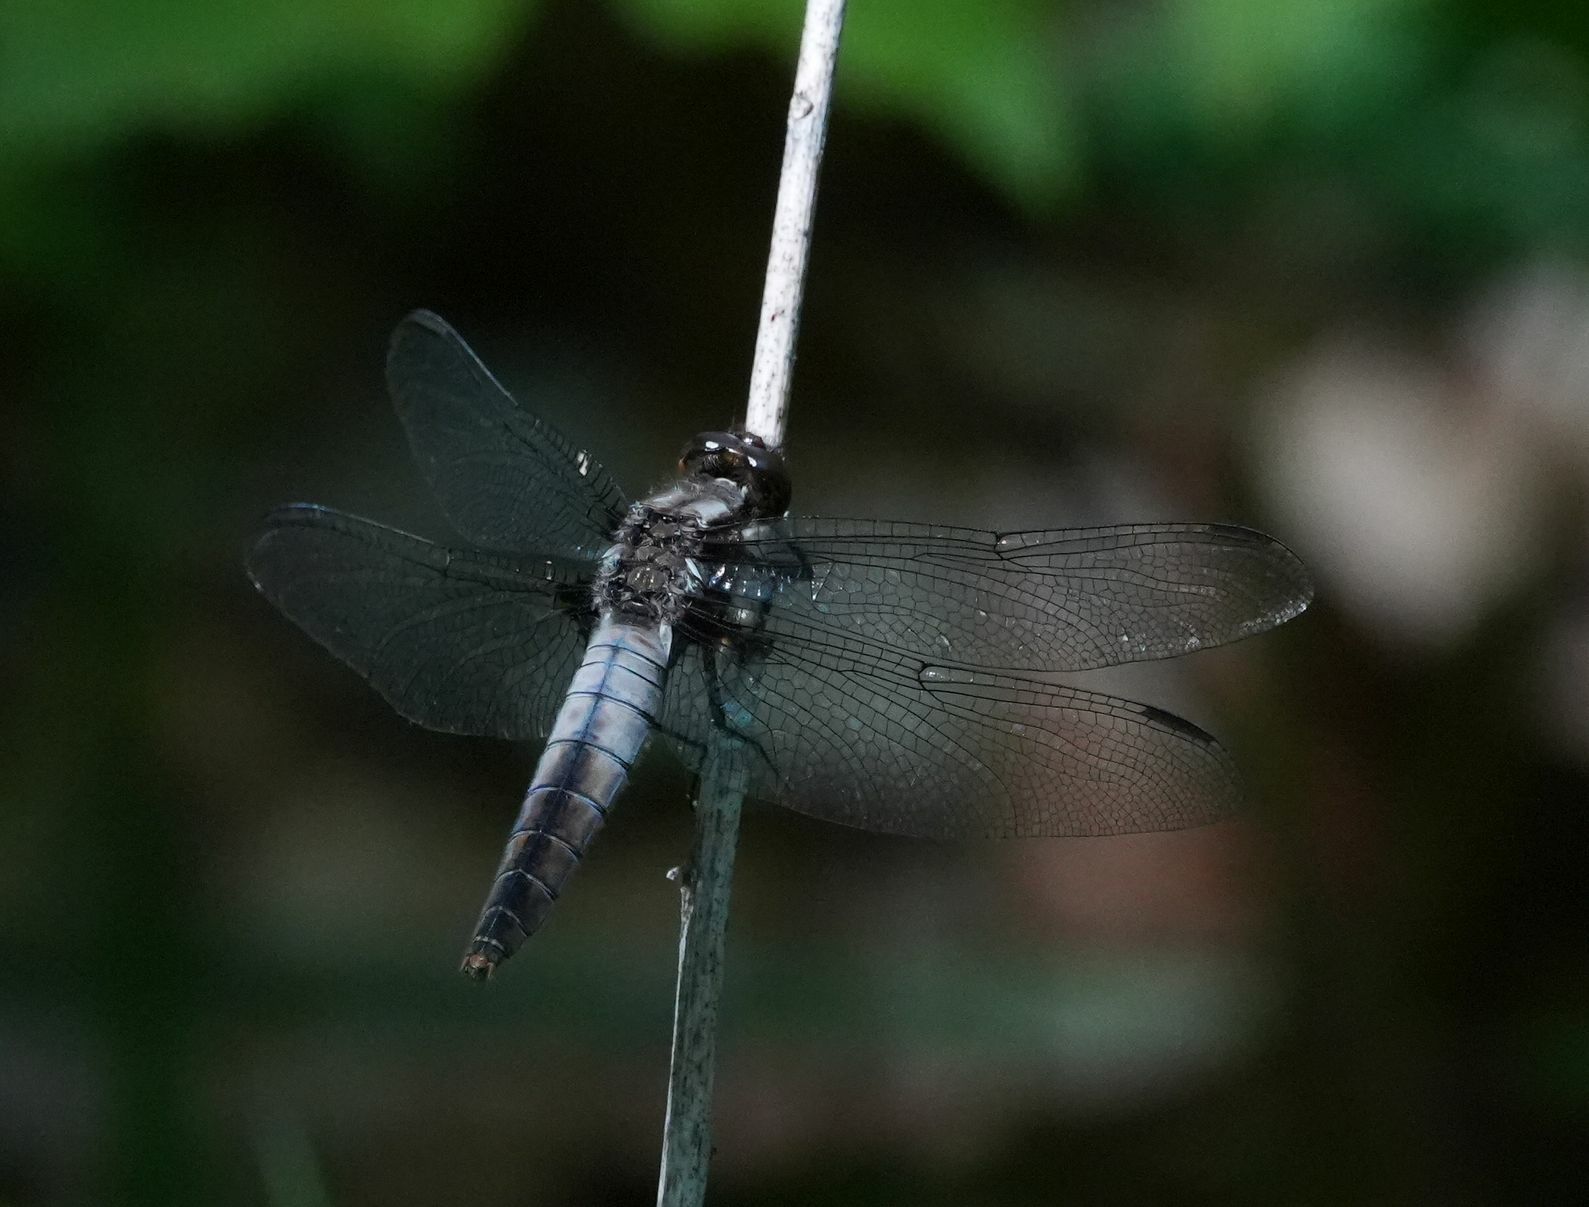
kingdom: Animalia
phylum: Arthropoda
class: Insecta
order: Odonata
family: Libellulidae
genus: Ladona
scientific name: Ladona julia
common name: Chalk-fronted corporal
